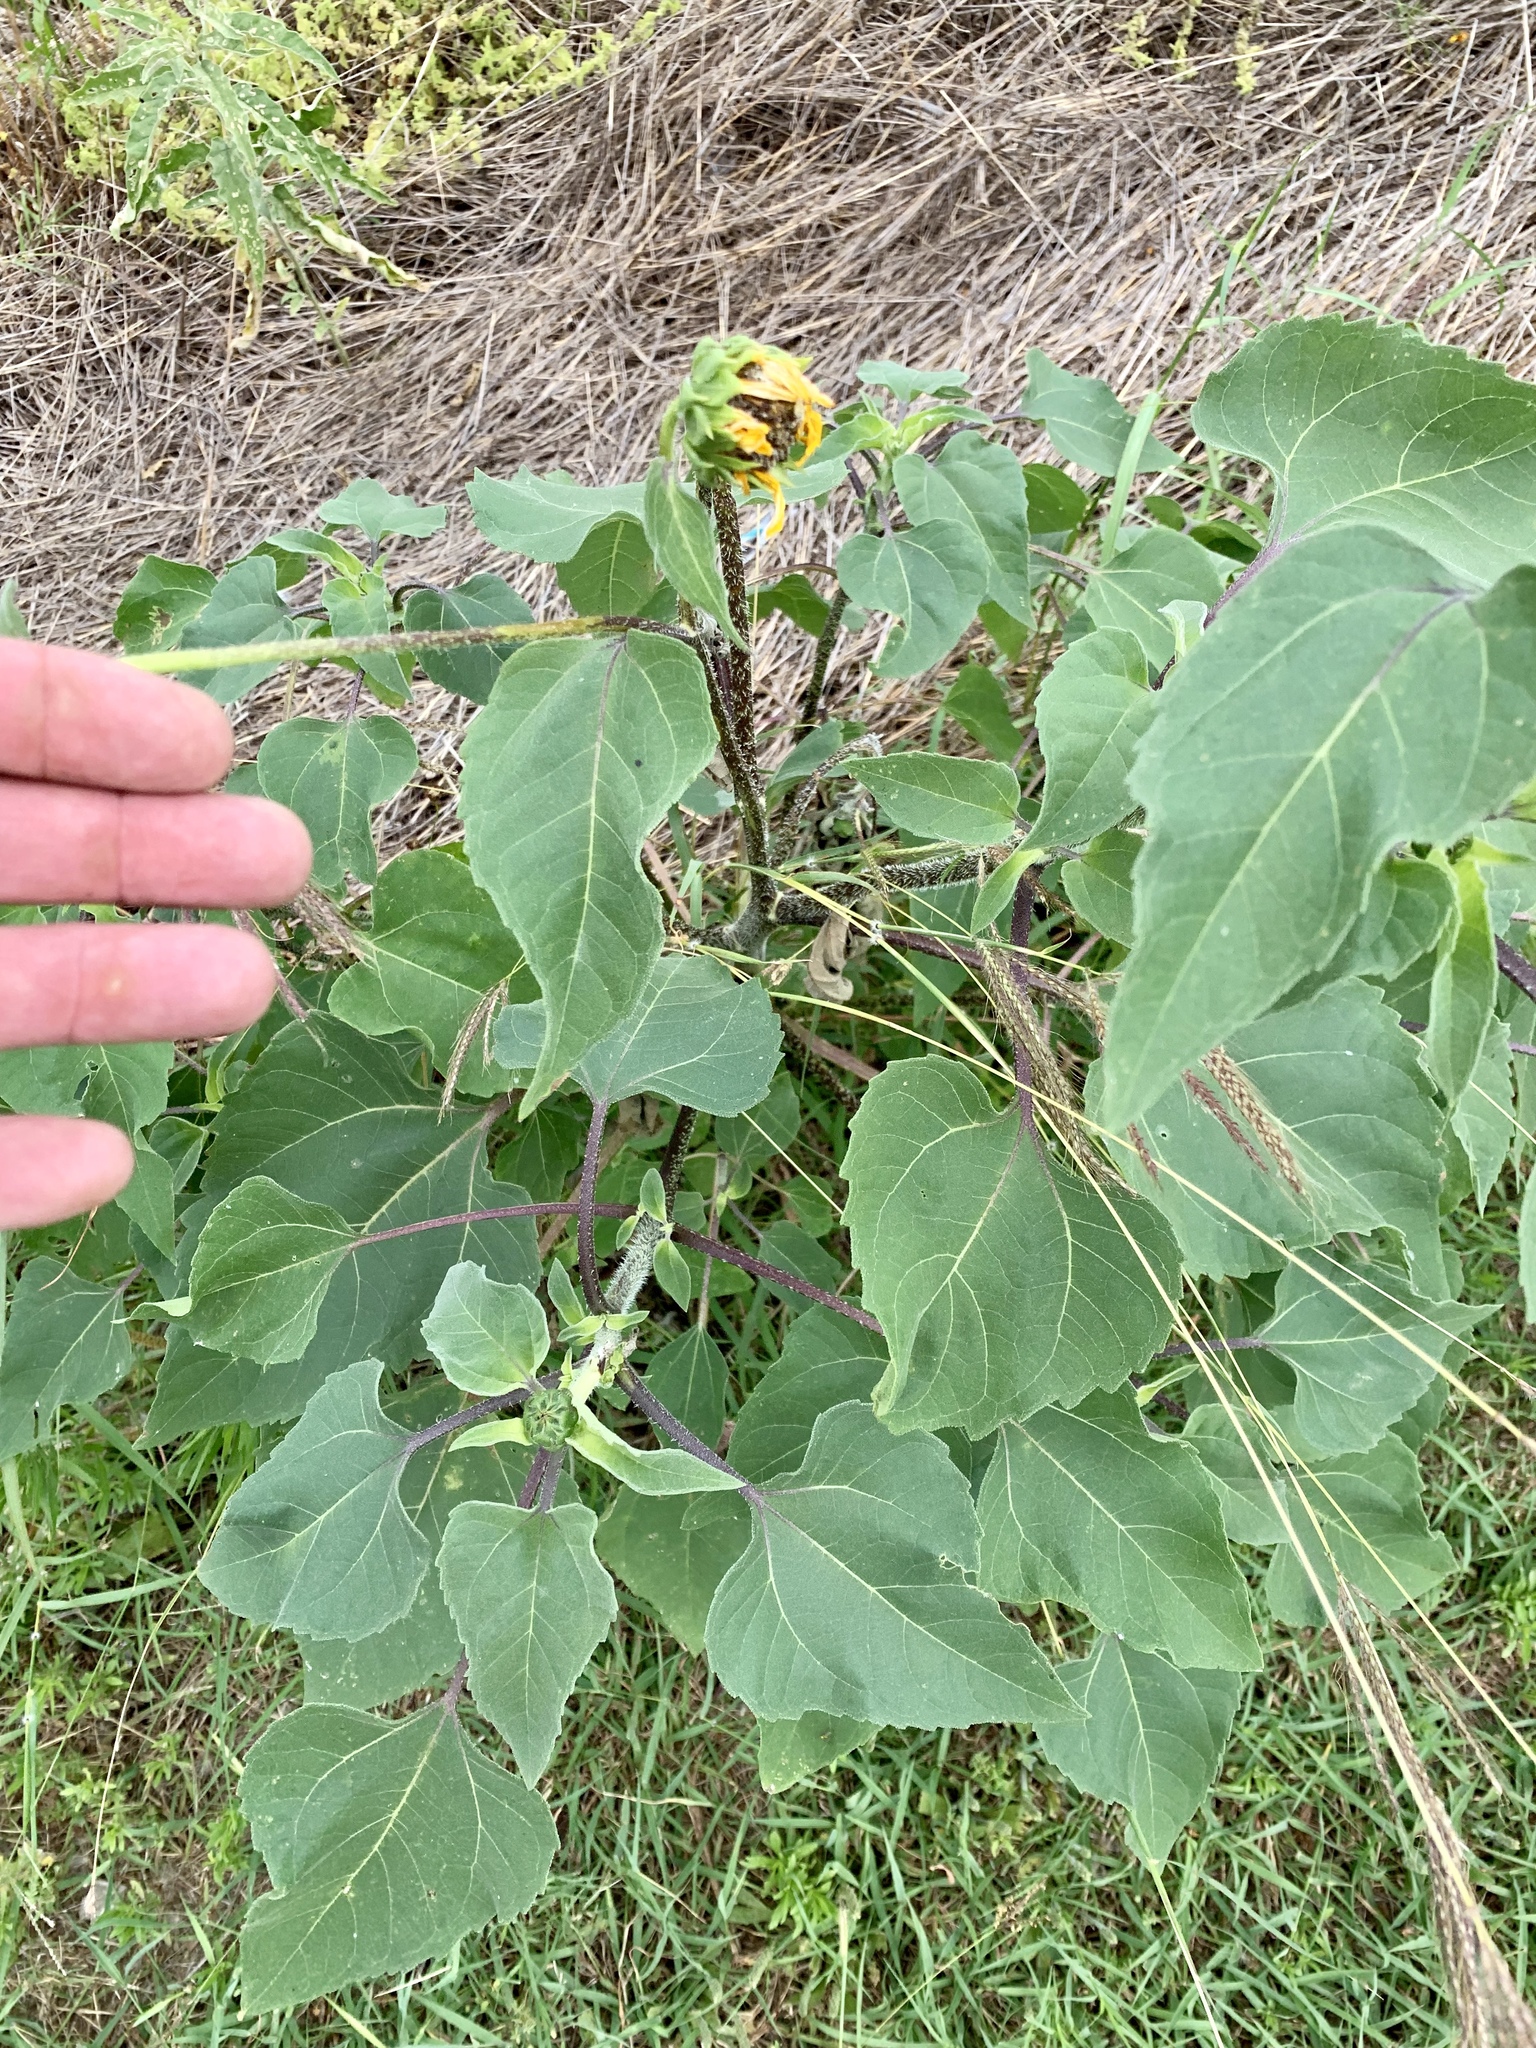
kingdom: Plantae
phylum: Tracheophyta
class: Magnoliopsida
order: Asterales
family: Asteraceae
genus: Helianthus
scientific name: Helianthus annuus
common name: Sunflower
